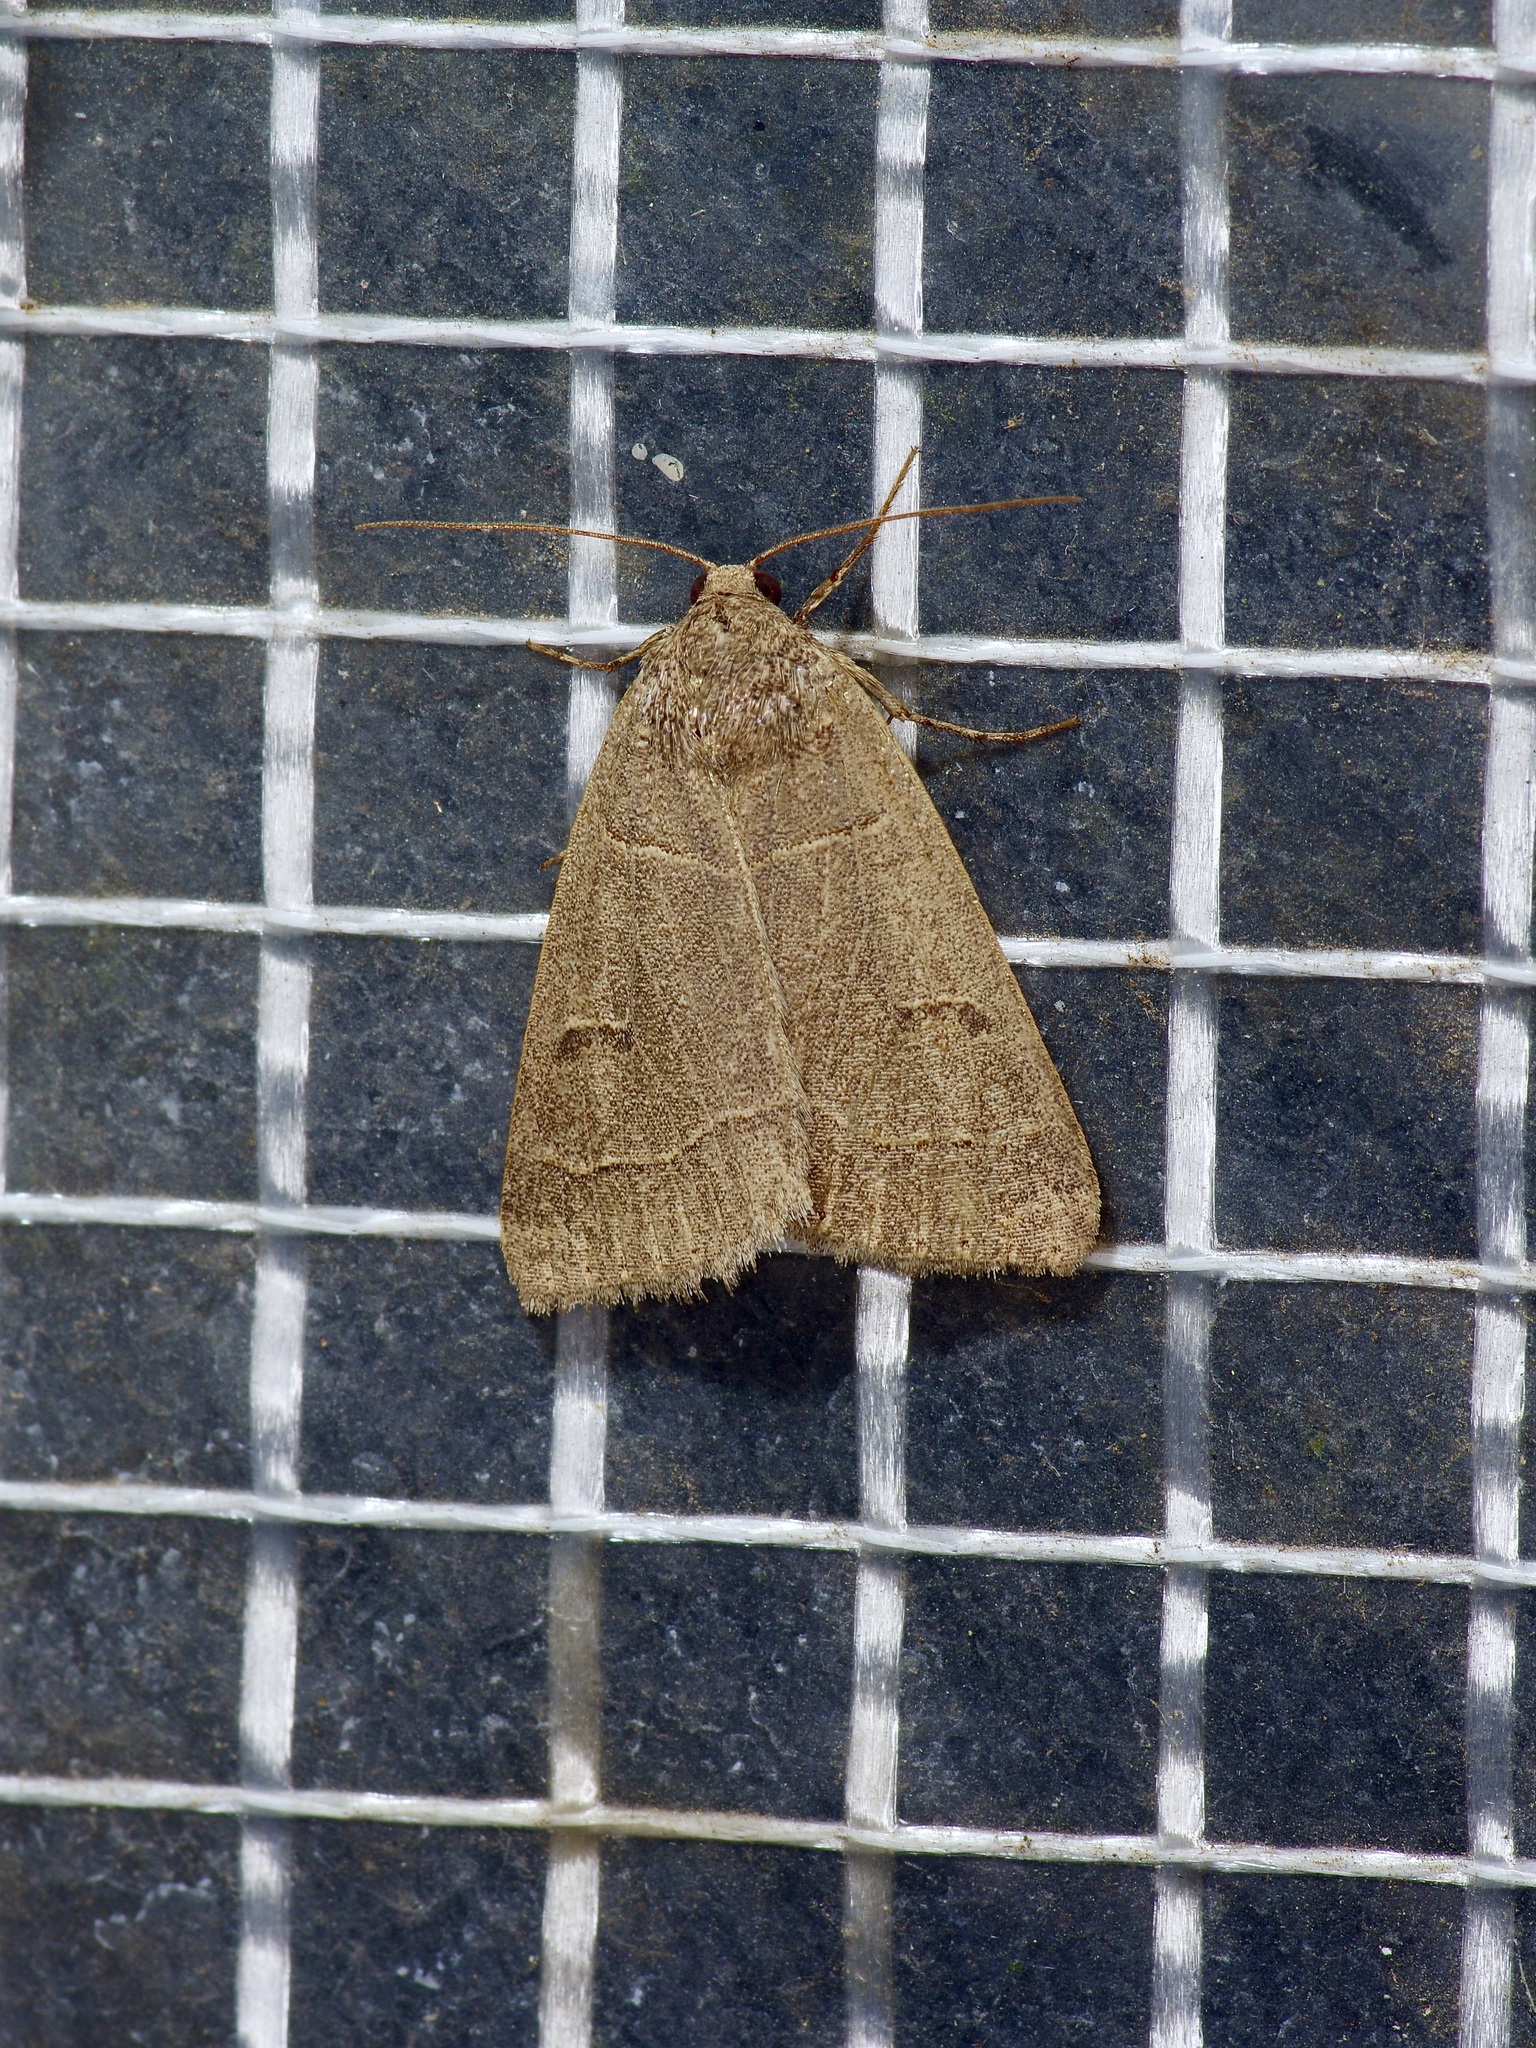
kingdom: Animalia
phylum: Arthropoda
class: Insecta
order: Lepidoptera
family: Erebidae
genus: Phoberia
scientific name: Phoberia atomaris
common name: Common oak moth
